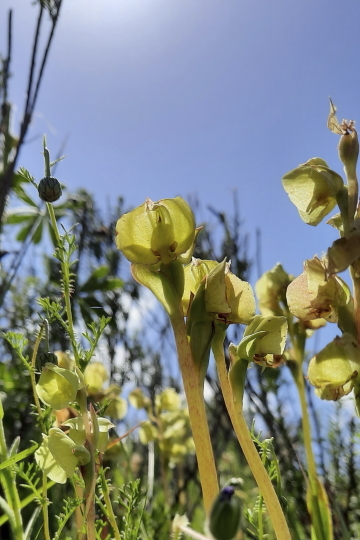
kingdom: Plantae
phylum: Tracheophyta
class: Liliopsida
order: Asparagales
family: Orchidaceae
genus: Pterygodium
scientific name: Pterygodium catholicum
